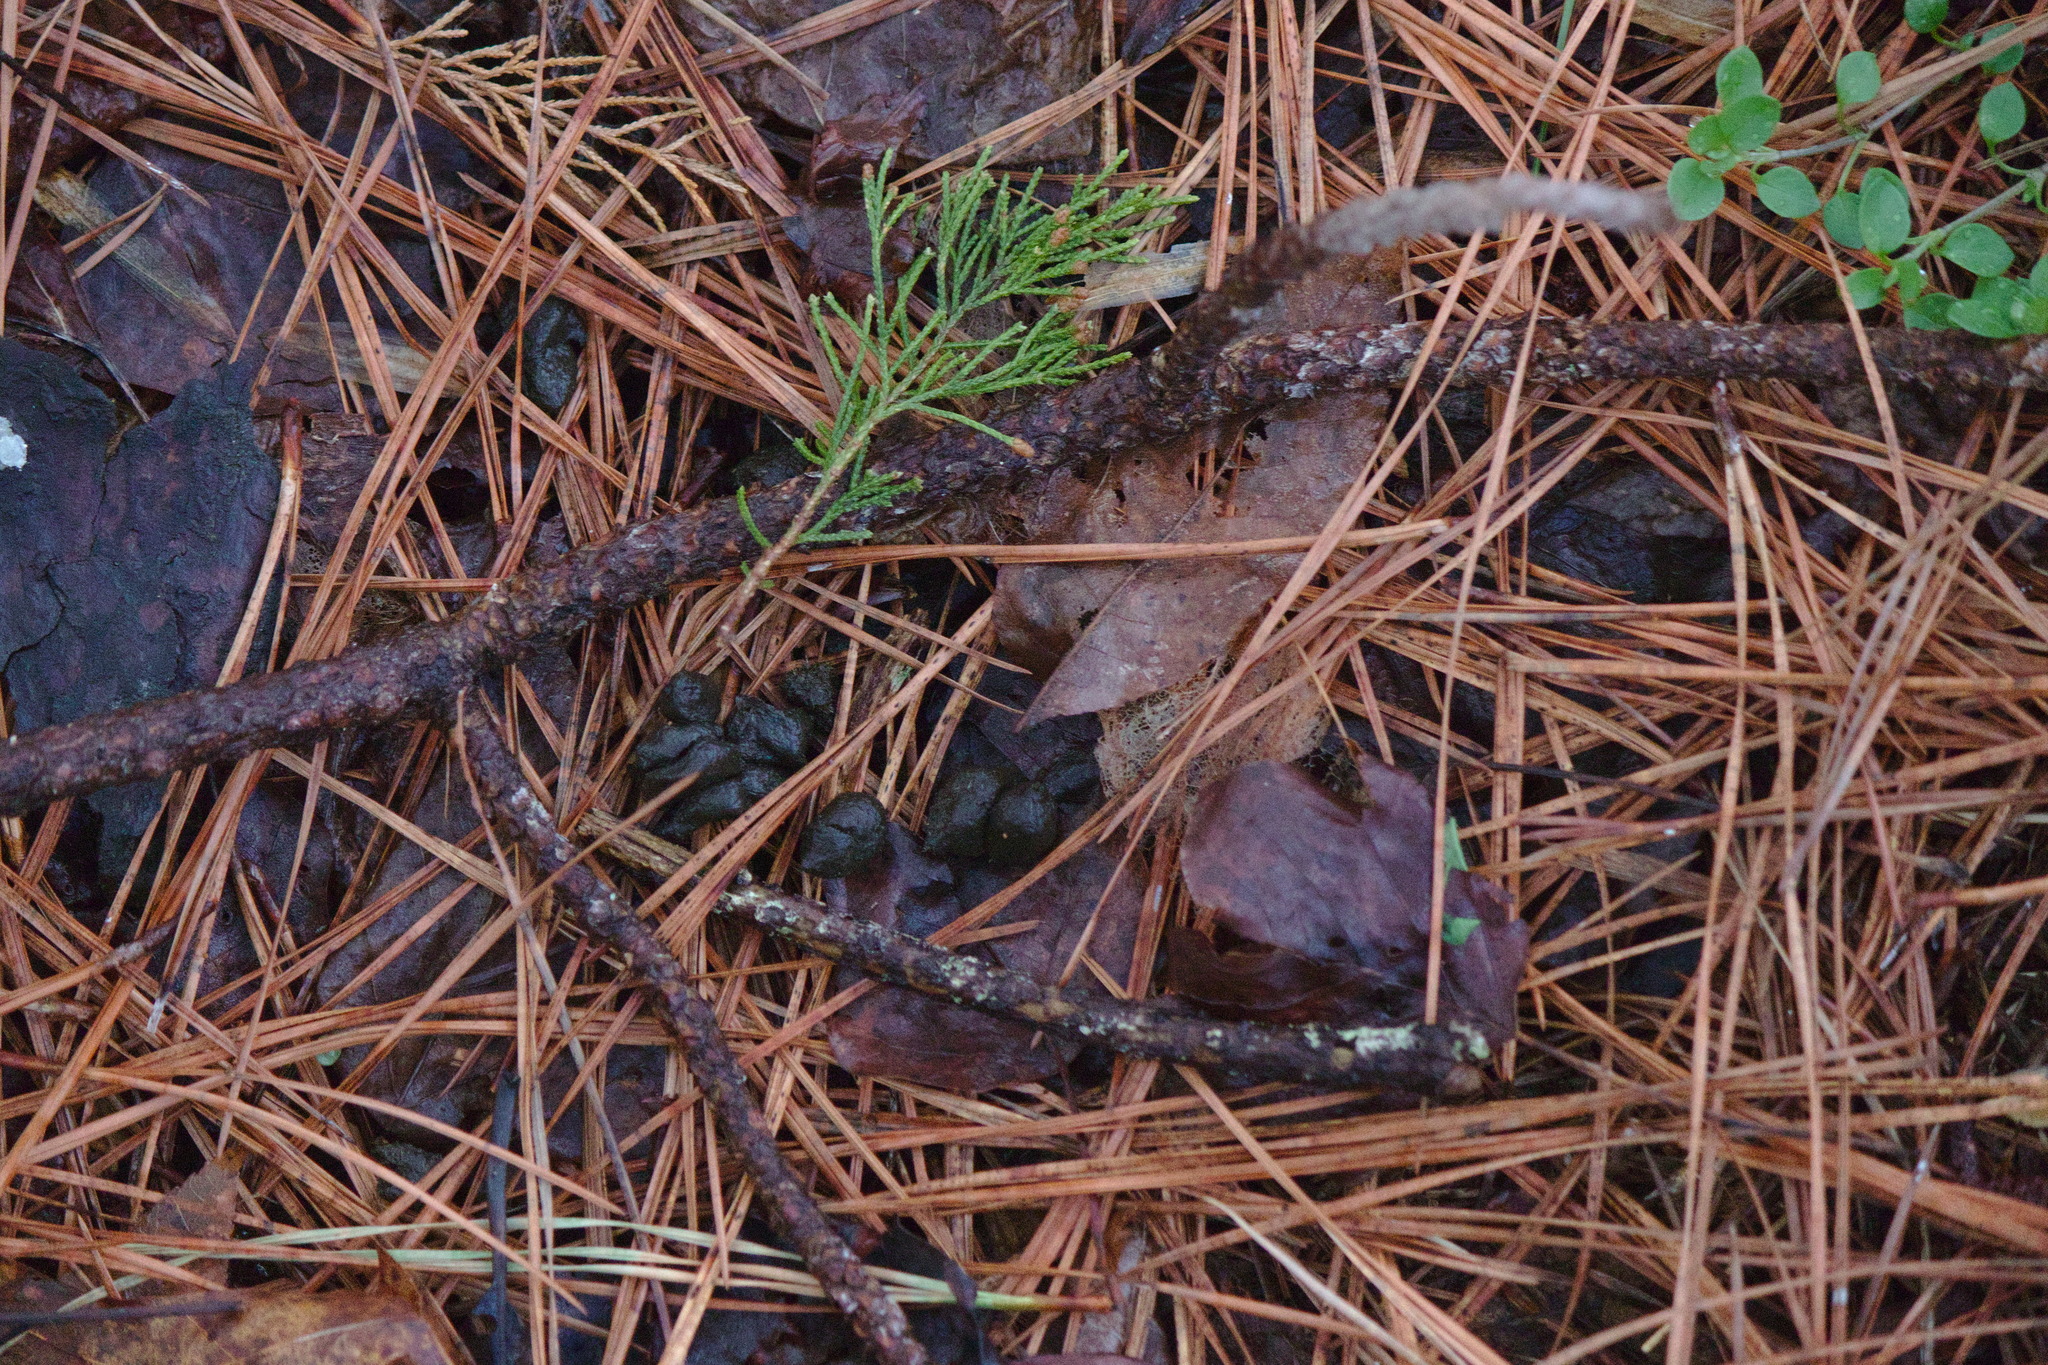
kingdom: Animalia
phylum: Chordata
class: Mammalia
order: Artiodactyla
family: Cervidae
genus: Odocoileus
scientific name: Odocoileus virginianus
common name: White-tailed deer
